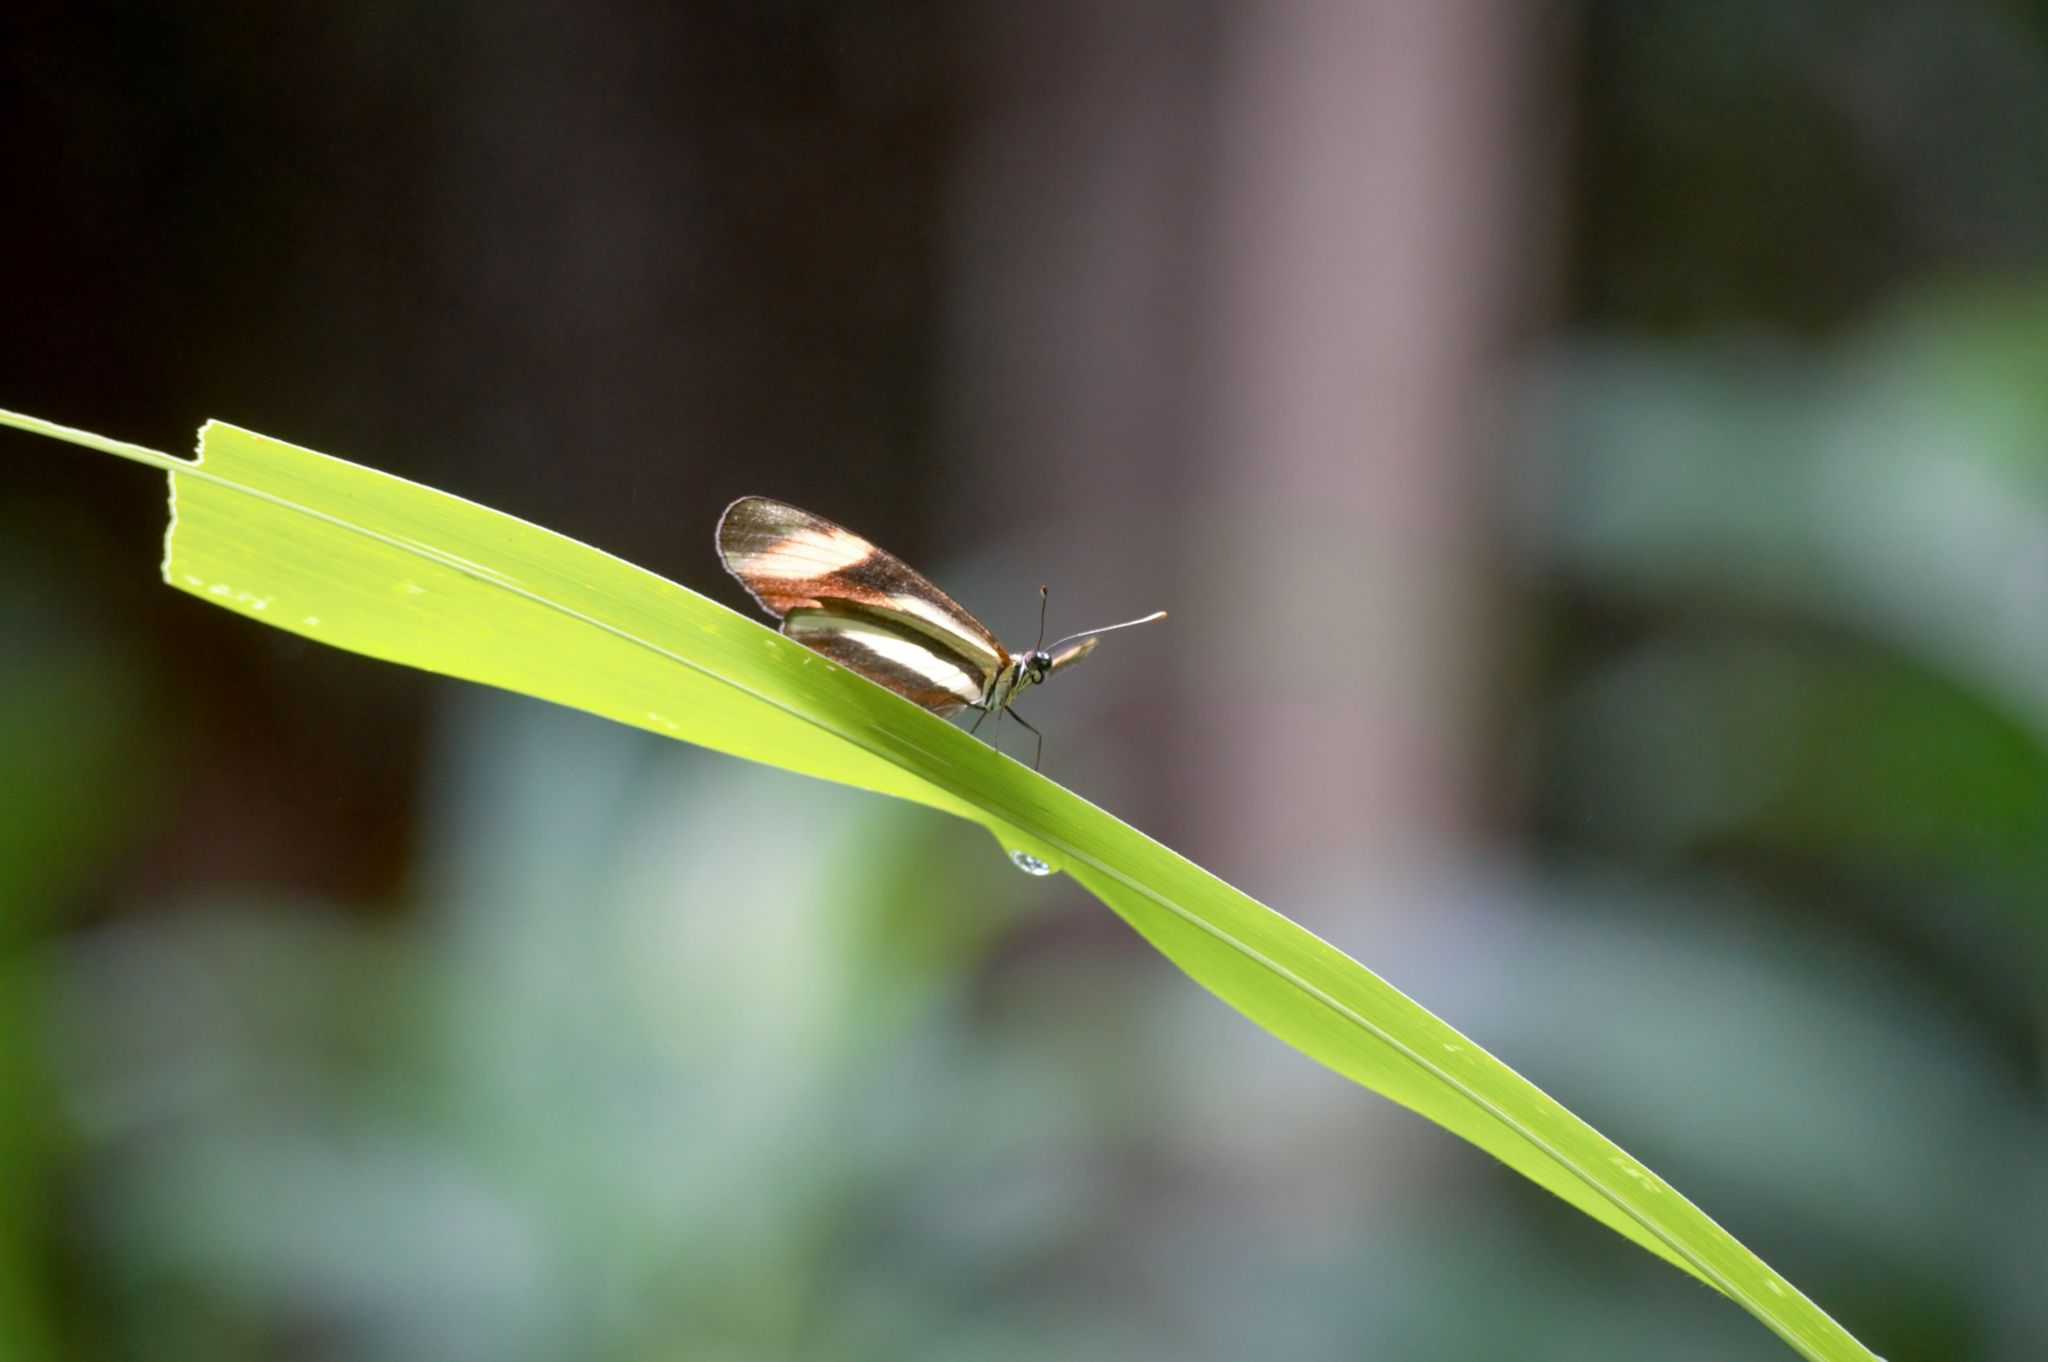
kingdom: Animalia
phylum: Arthropoda
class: Insecta
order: Lepidoptera
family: Nymphalidae
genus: Eresia
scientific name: Eresia lansdorfi
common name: Lansdorf's crescent
